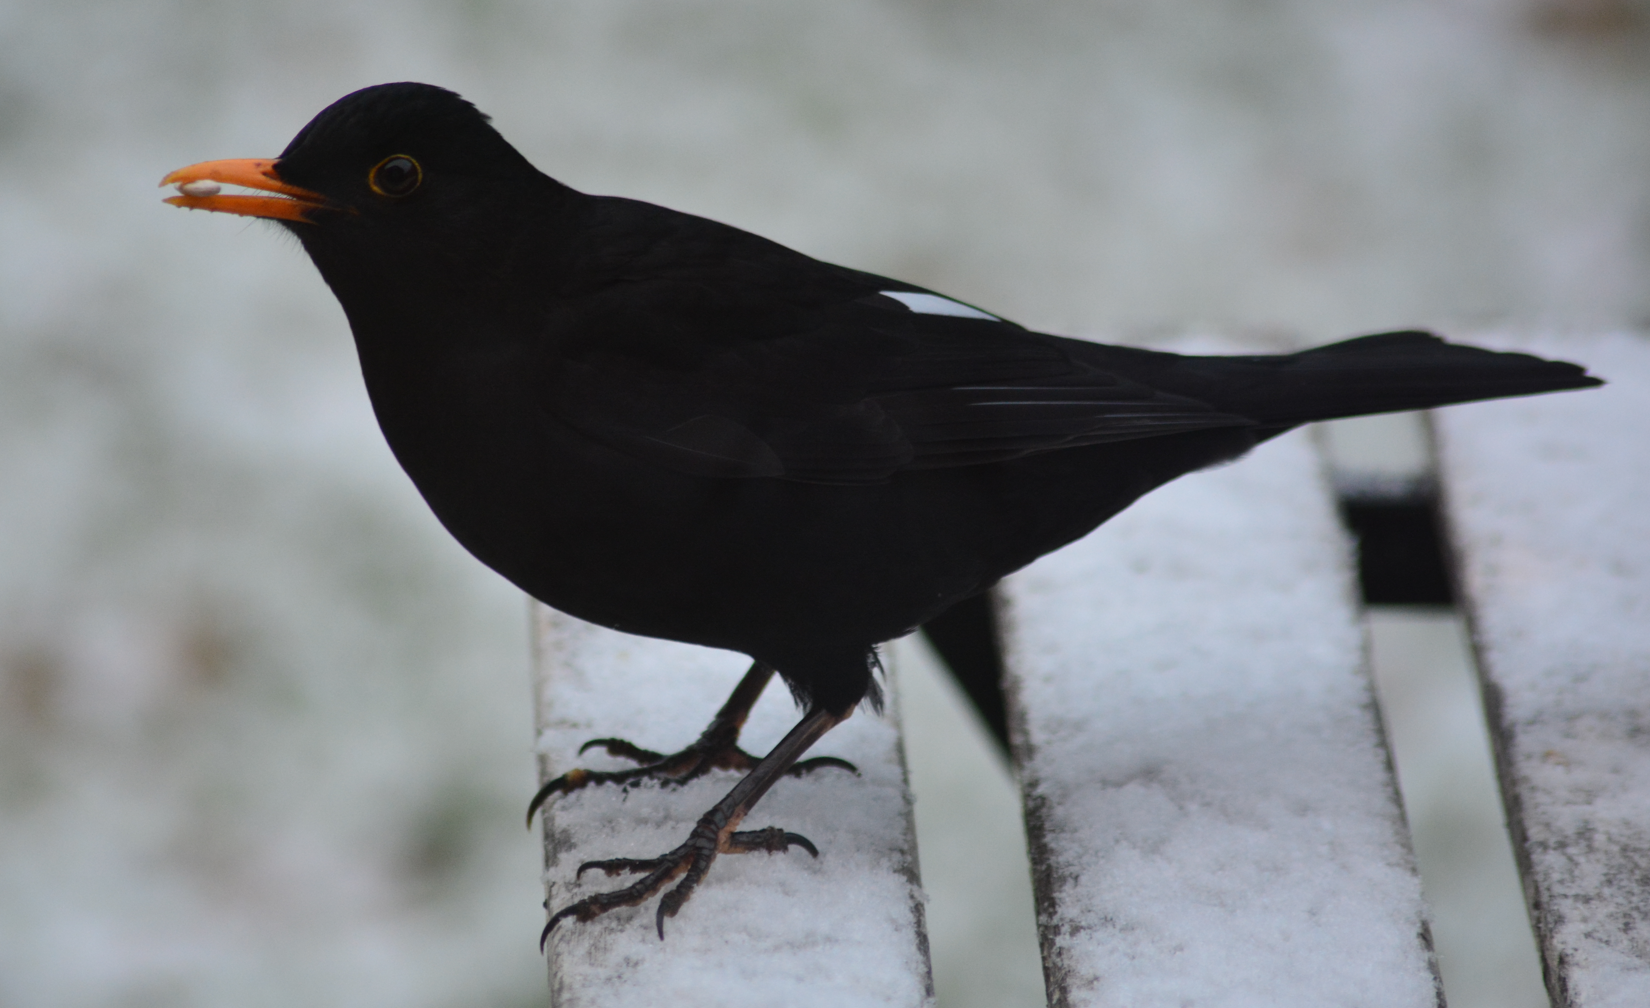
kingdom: Animalia
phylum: Chordata
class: Aves
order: Passeriformes
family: Turdidae
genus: Turdus
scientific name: Turdus merula
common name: Common blackbird
